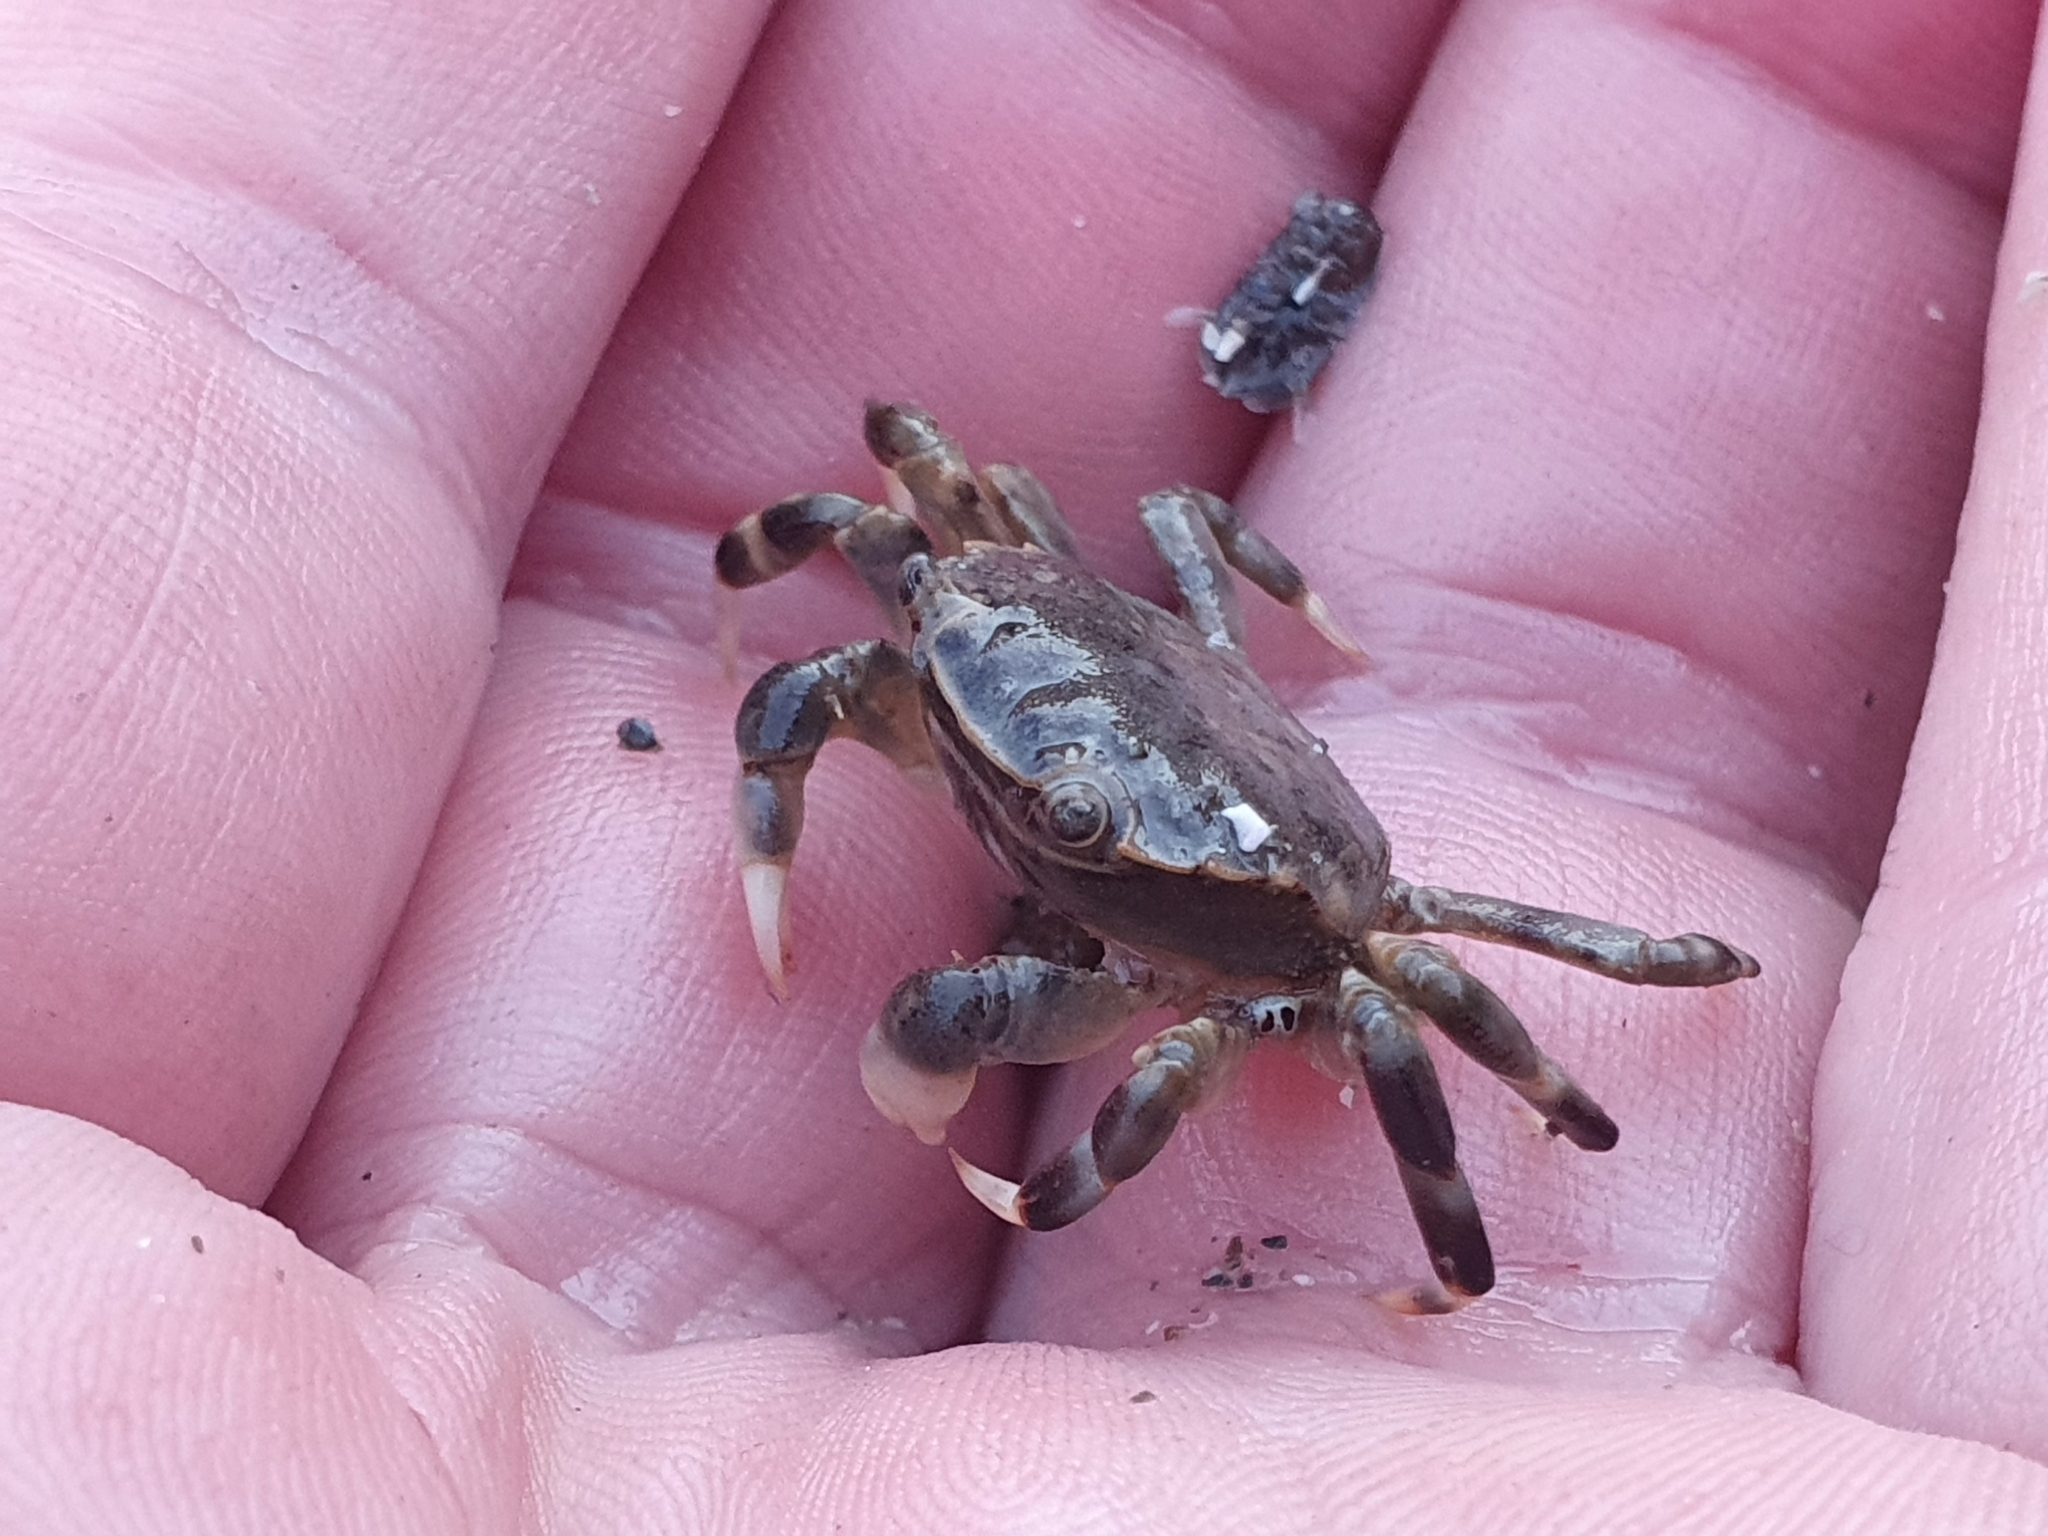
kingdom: Animalia
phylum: Arthropoda
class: Malacostraca
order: Decapoda
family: Varunidae
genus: Hemigrapsus
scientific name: Hemigrapsus sexdentatus
